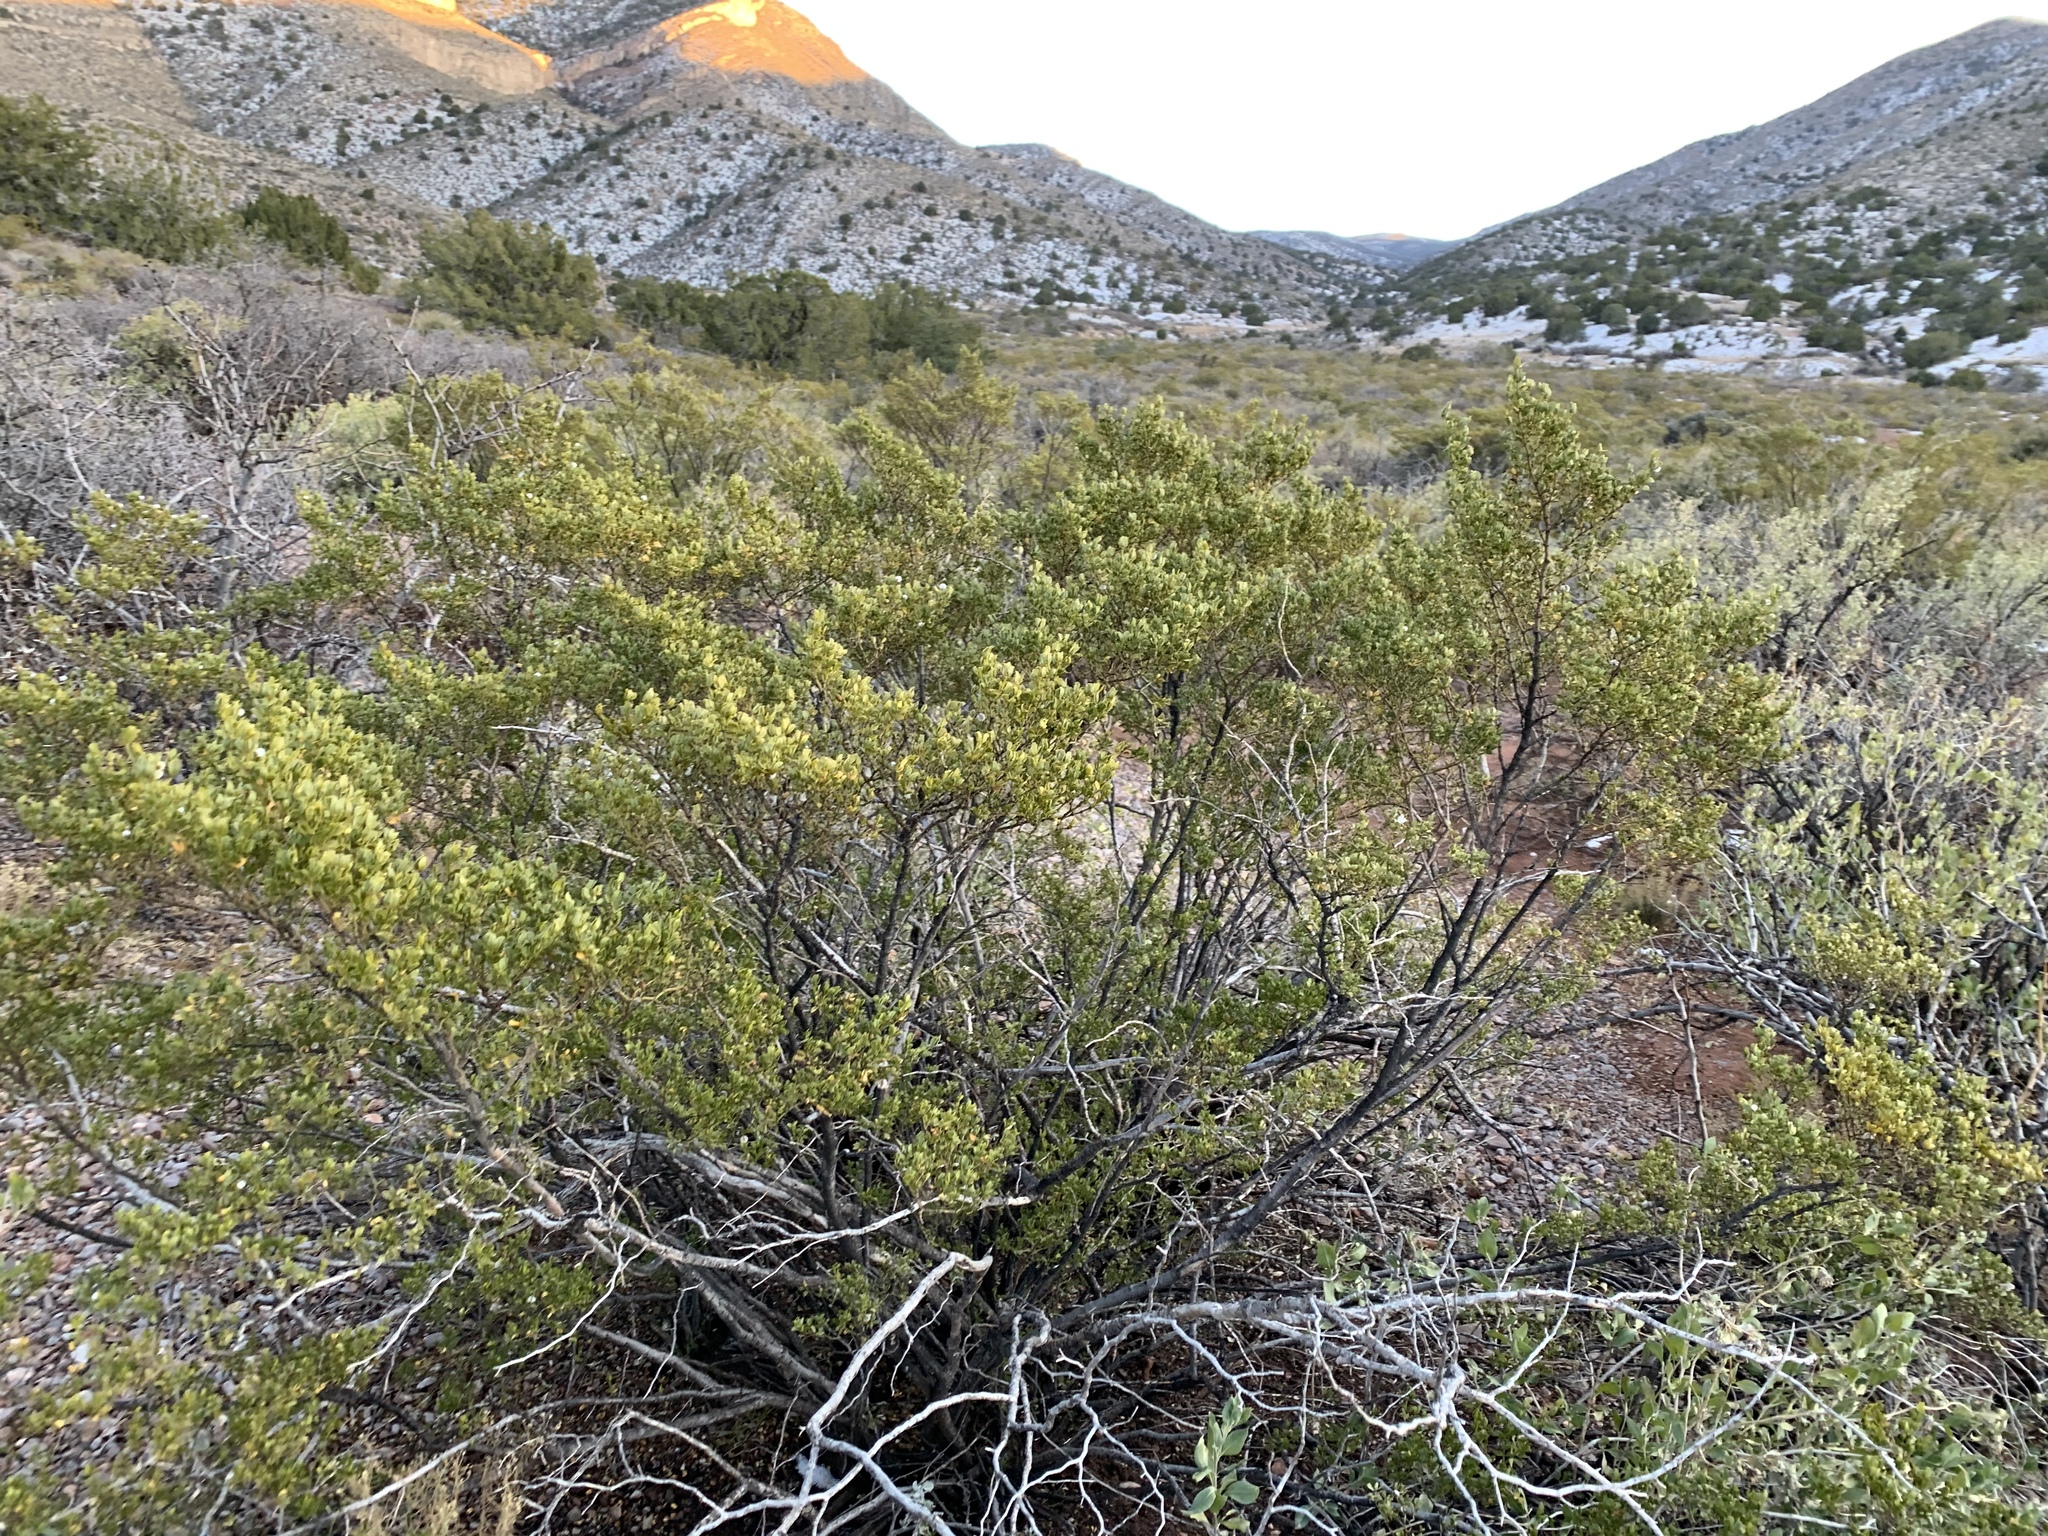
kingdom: Plantae
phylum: Tracheophyta
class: Magnoliopsida
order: Zygophyllales
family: Zygophyllaceae
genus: Larrea
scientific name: Larrea tridentata
